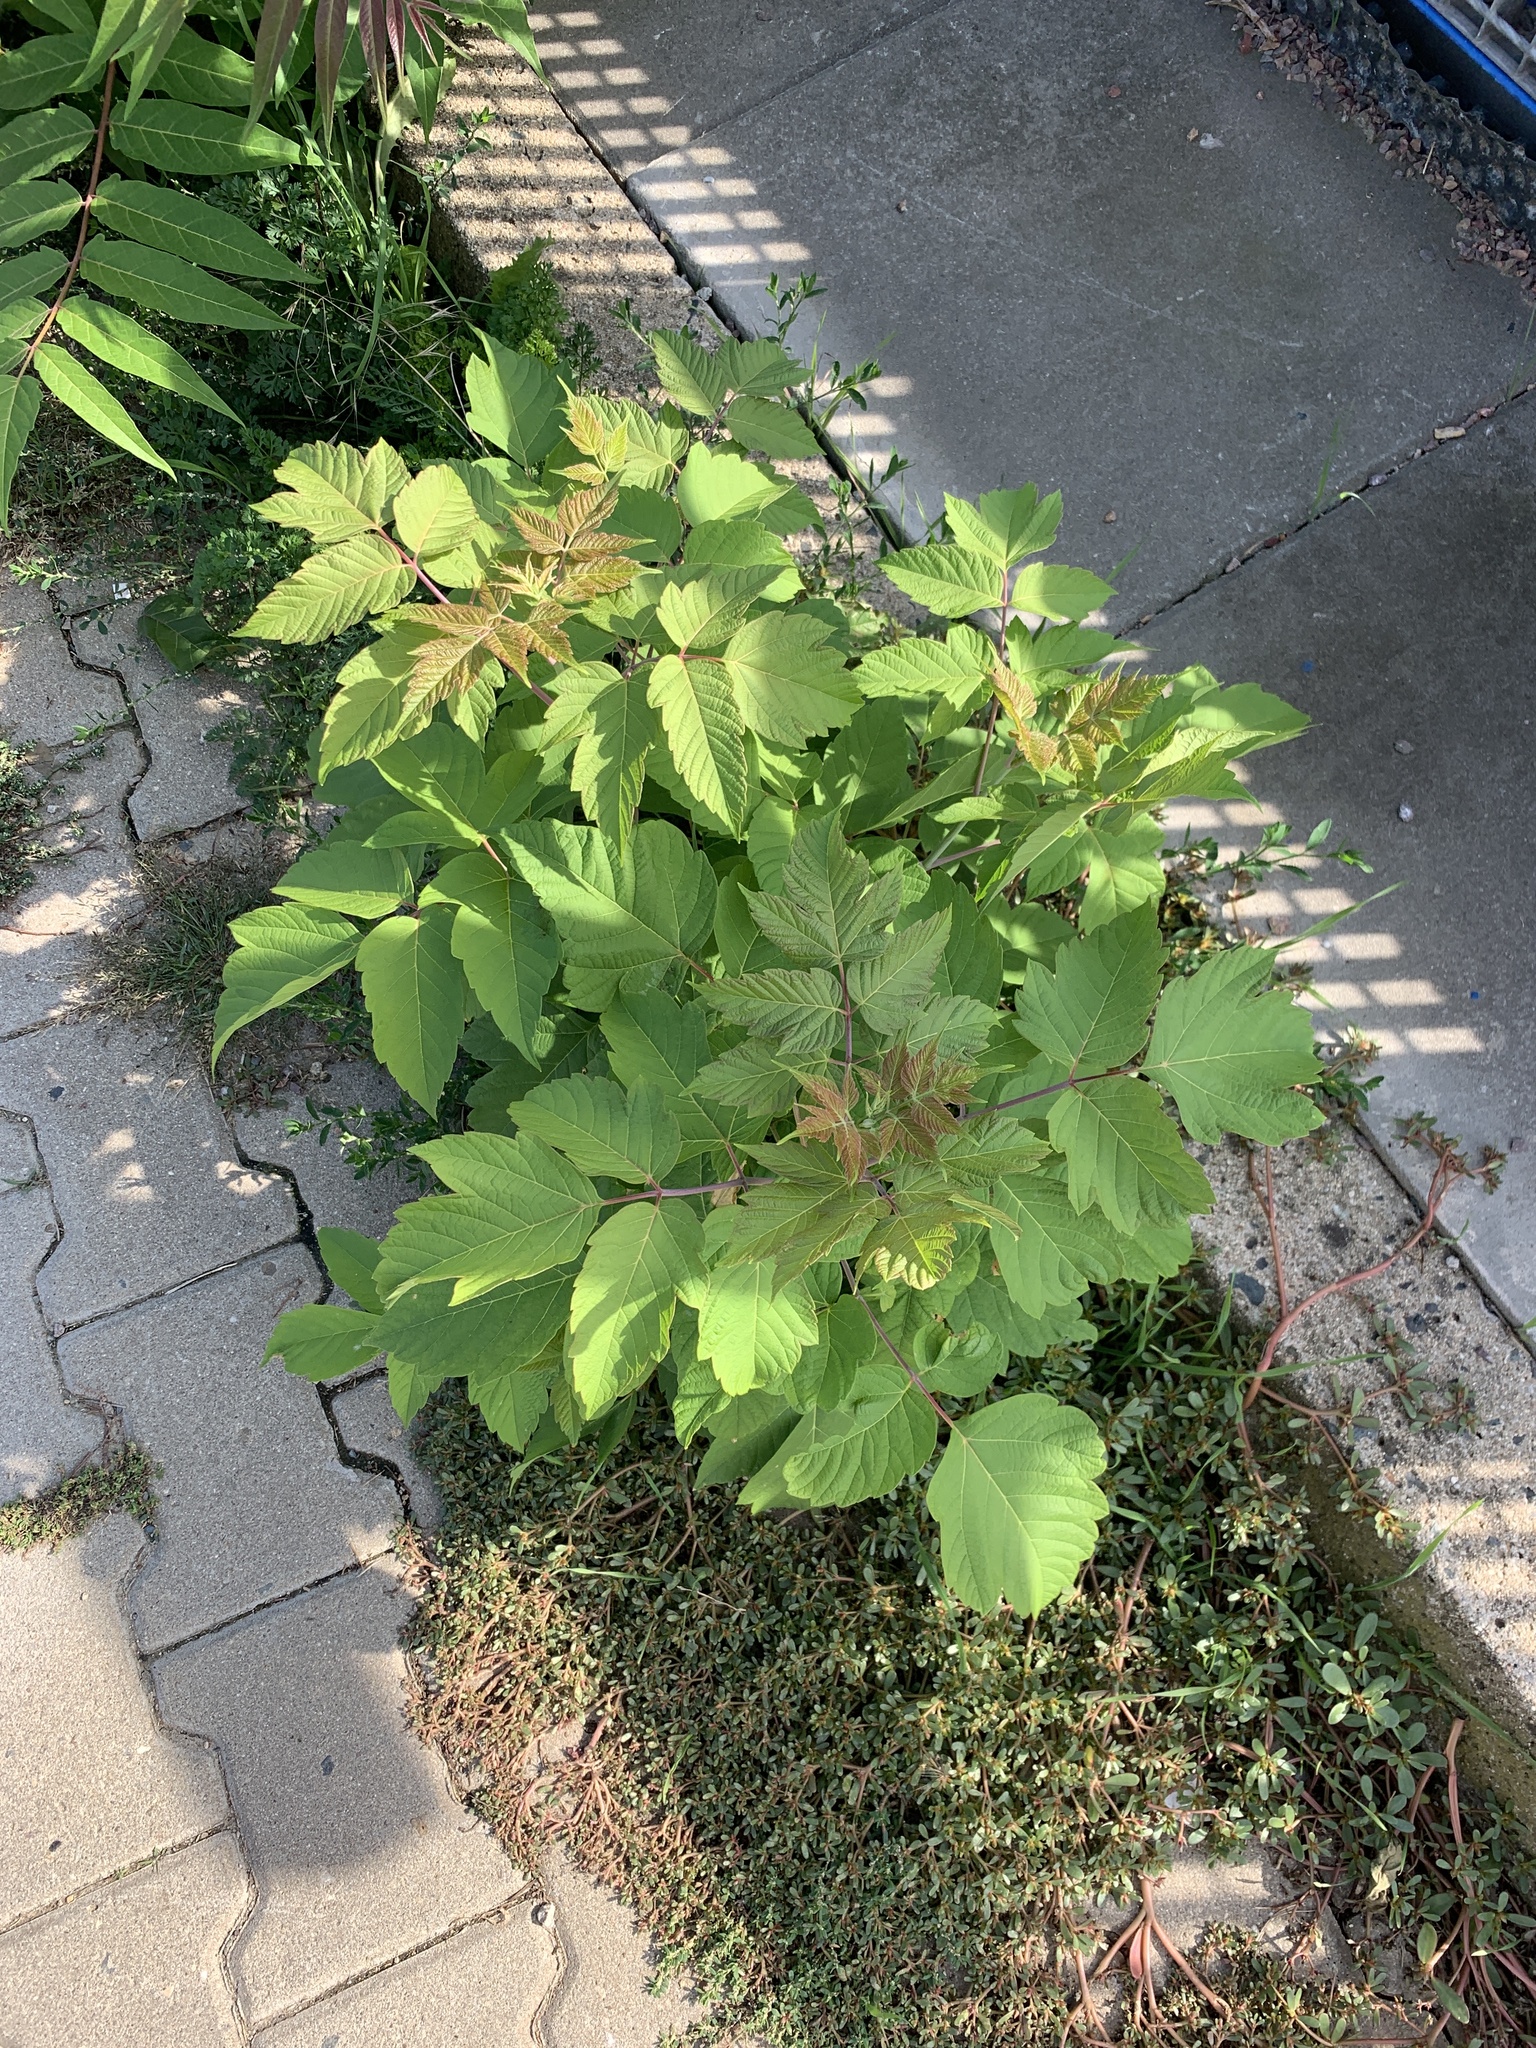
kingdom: Plantae
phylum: Tracheophyta
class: Magnoliopsida
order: Sapindales
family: Sapindaceae
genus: Acer
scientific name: Acer negundo
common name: Ashleaf maple
